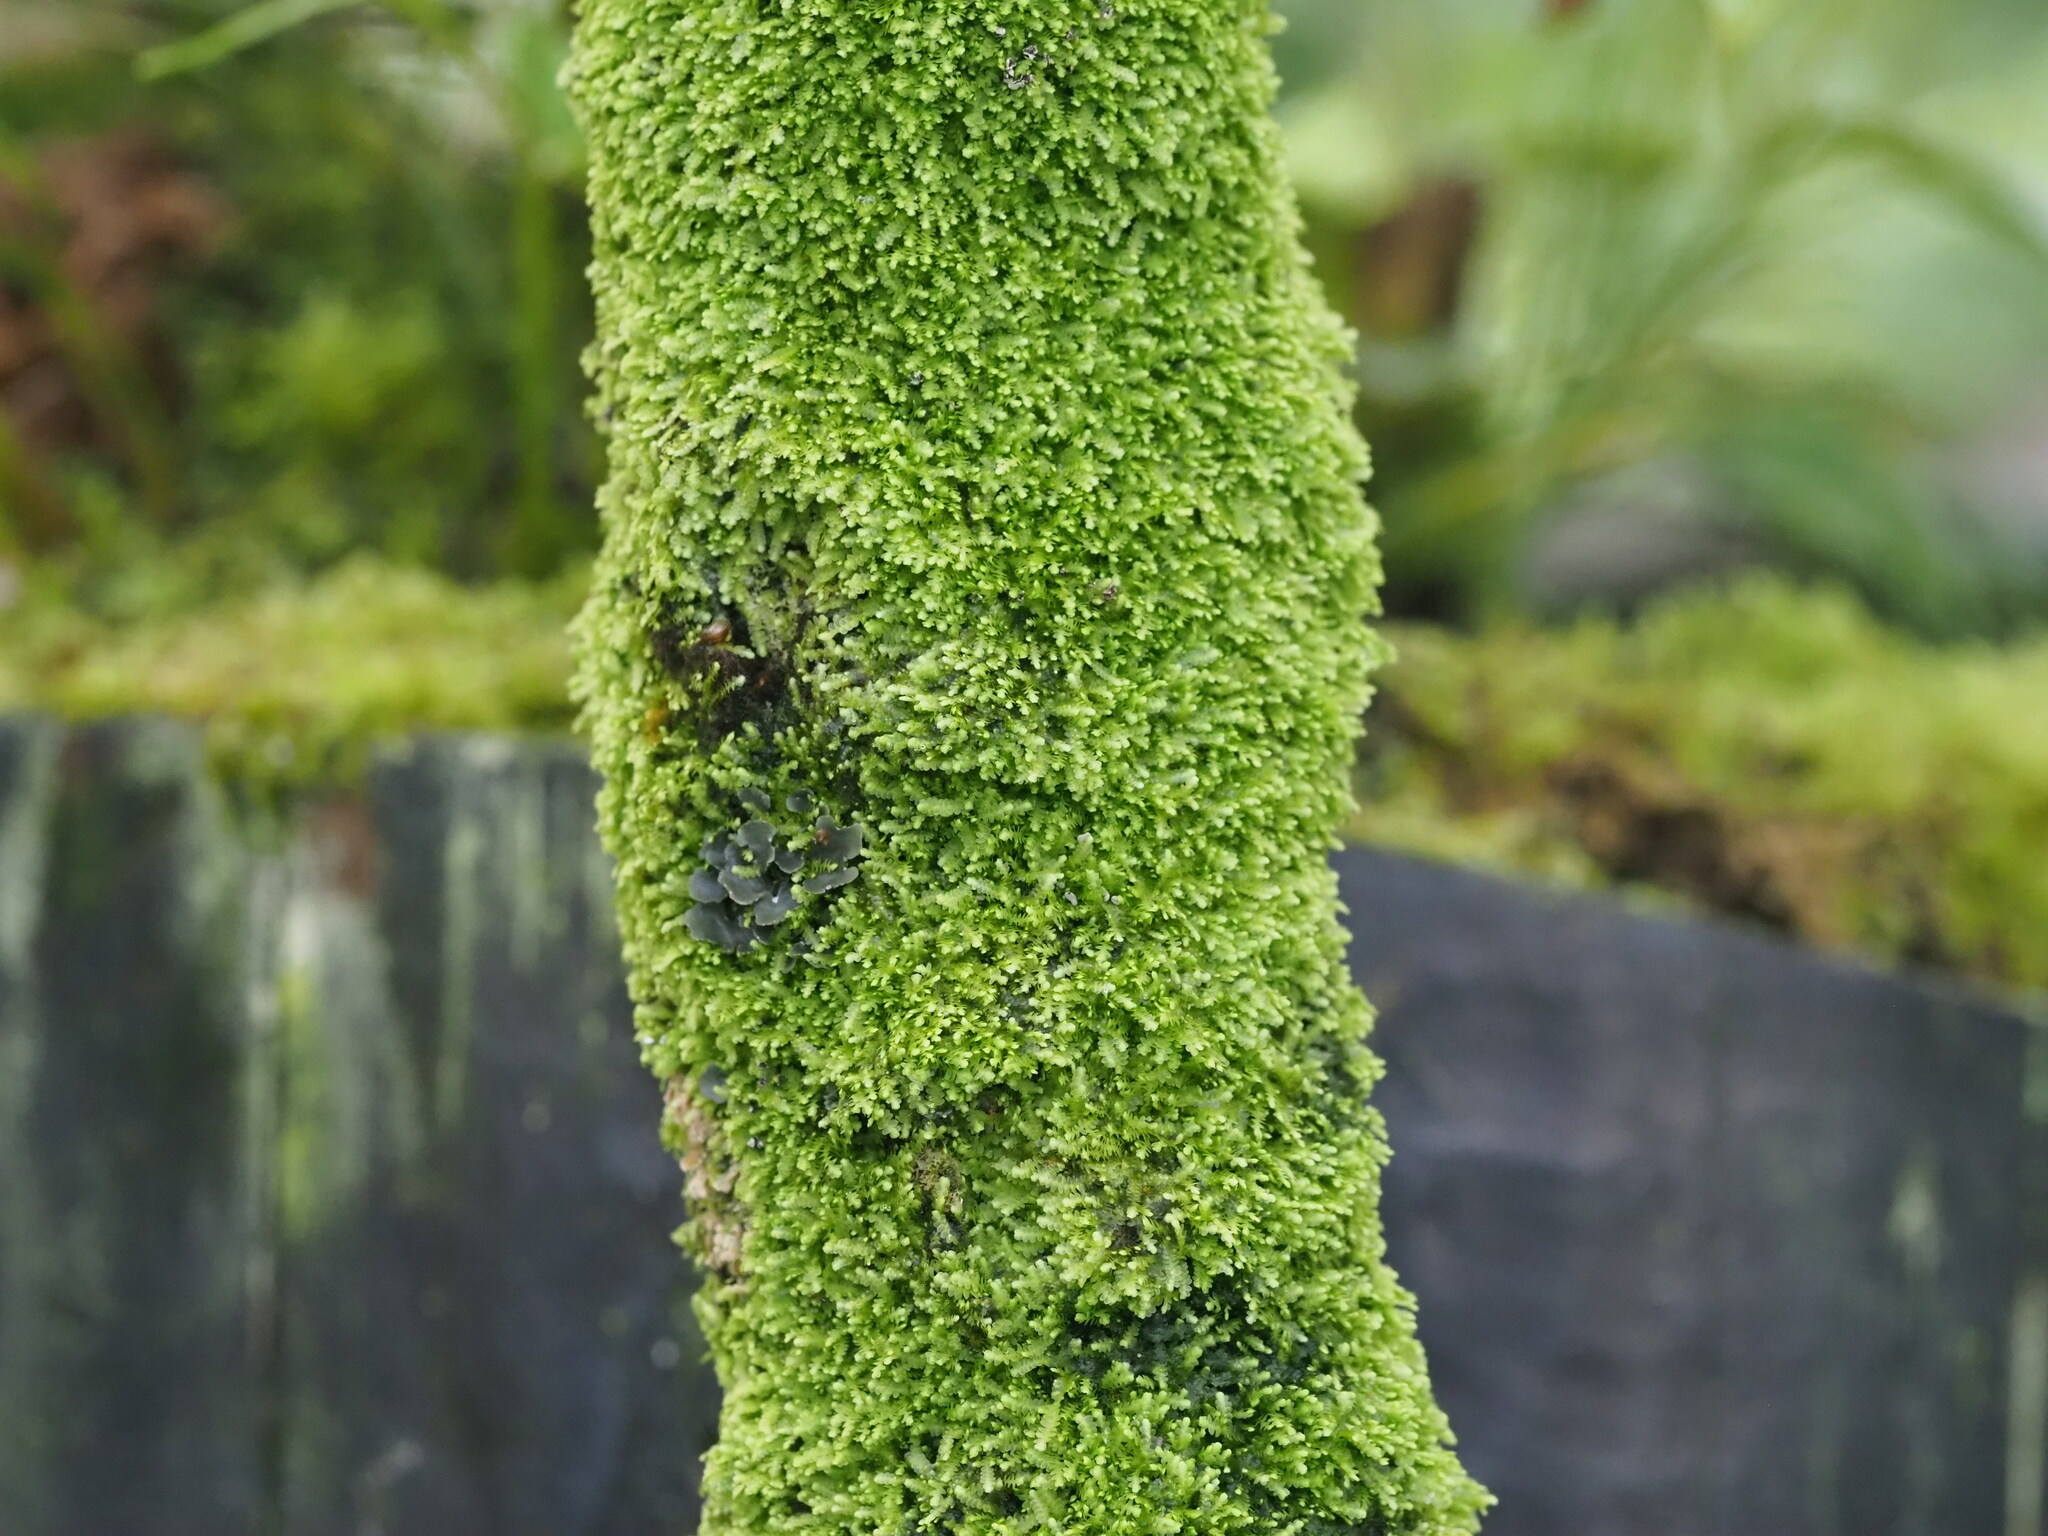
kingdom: Plantae
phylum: Marchantiophyta
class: Jungermanniopsida
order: Porellales
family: Lejeuneaceae
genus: Lejeunea
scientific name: Lejeunea flava
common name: Yellow pouncewort
